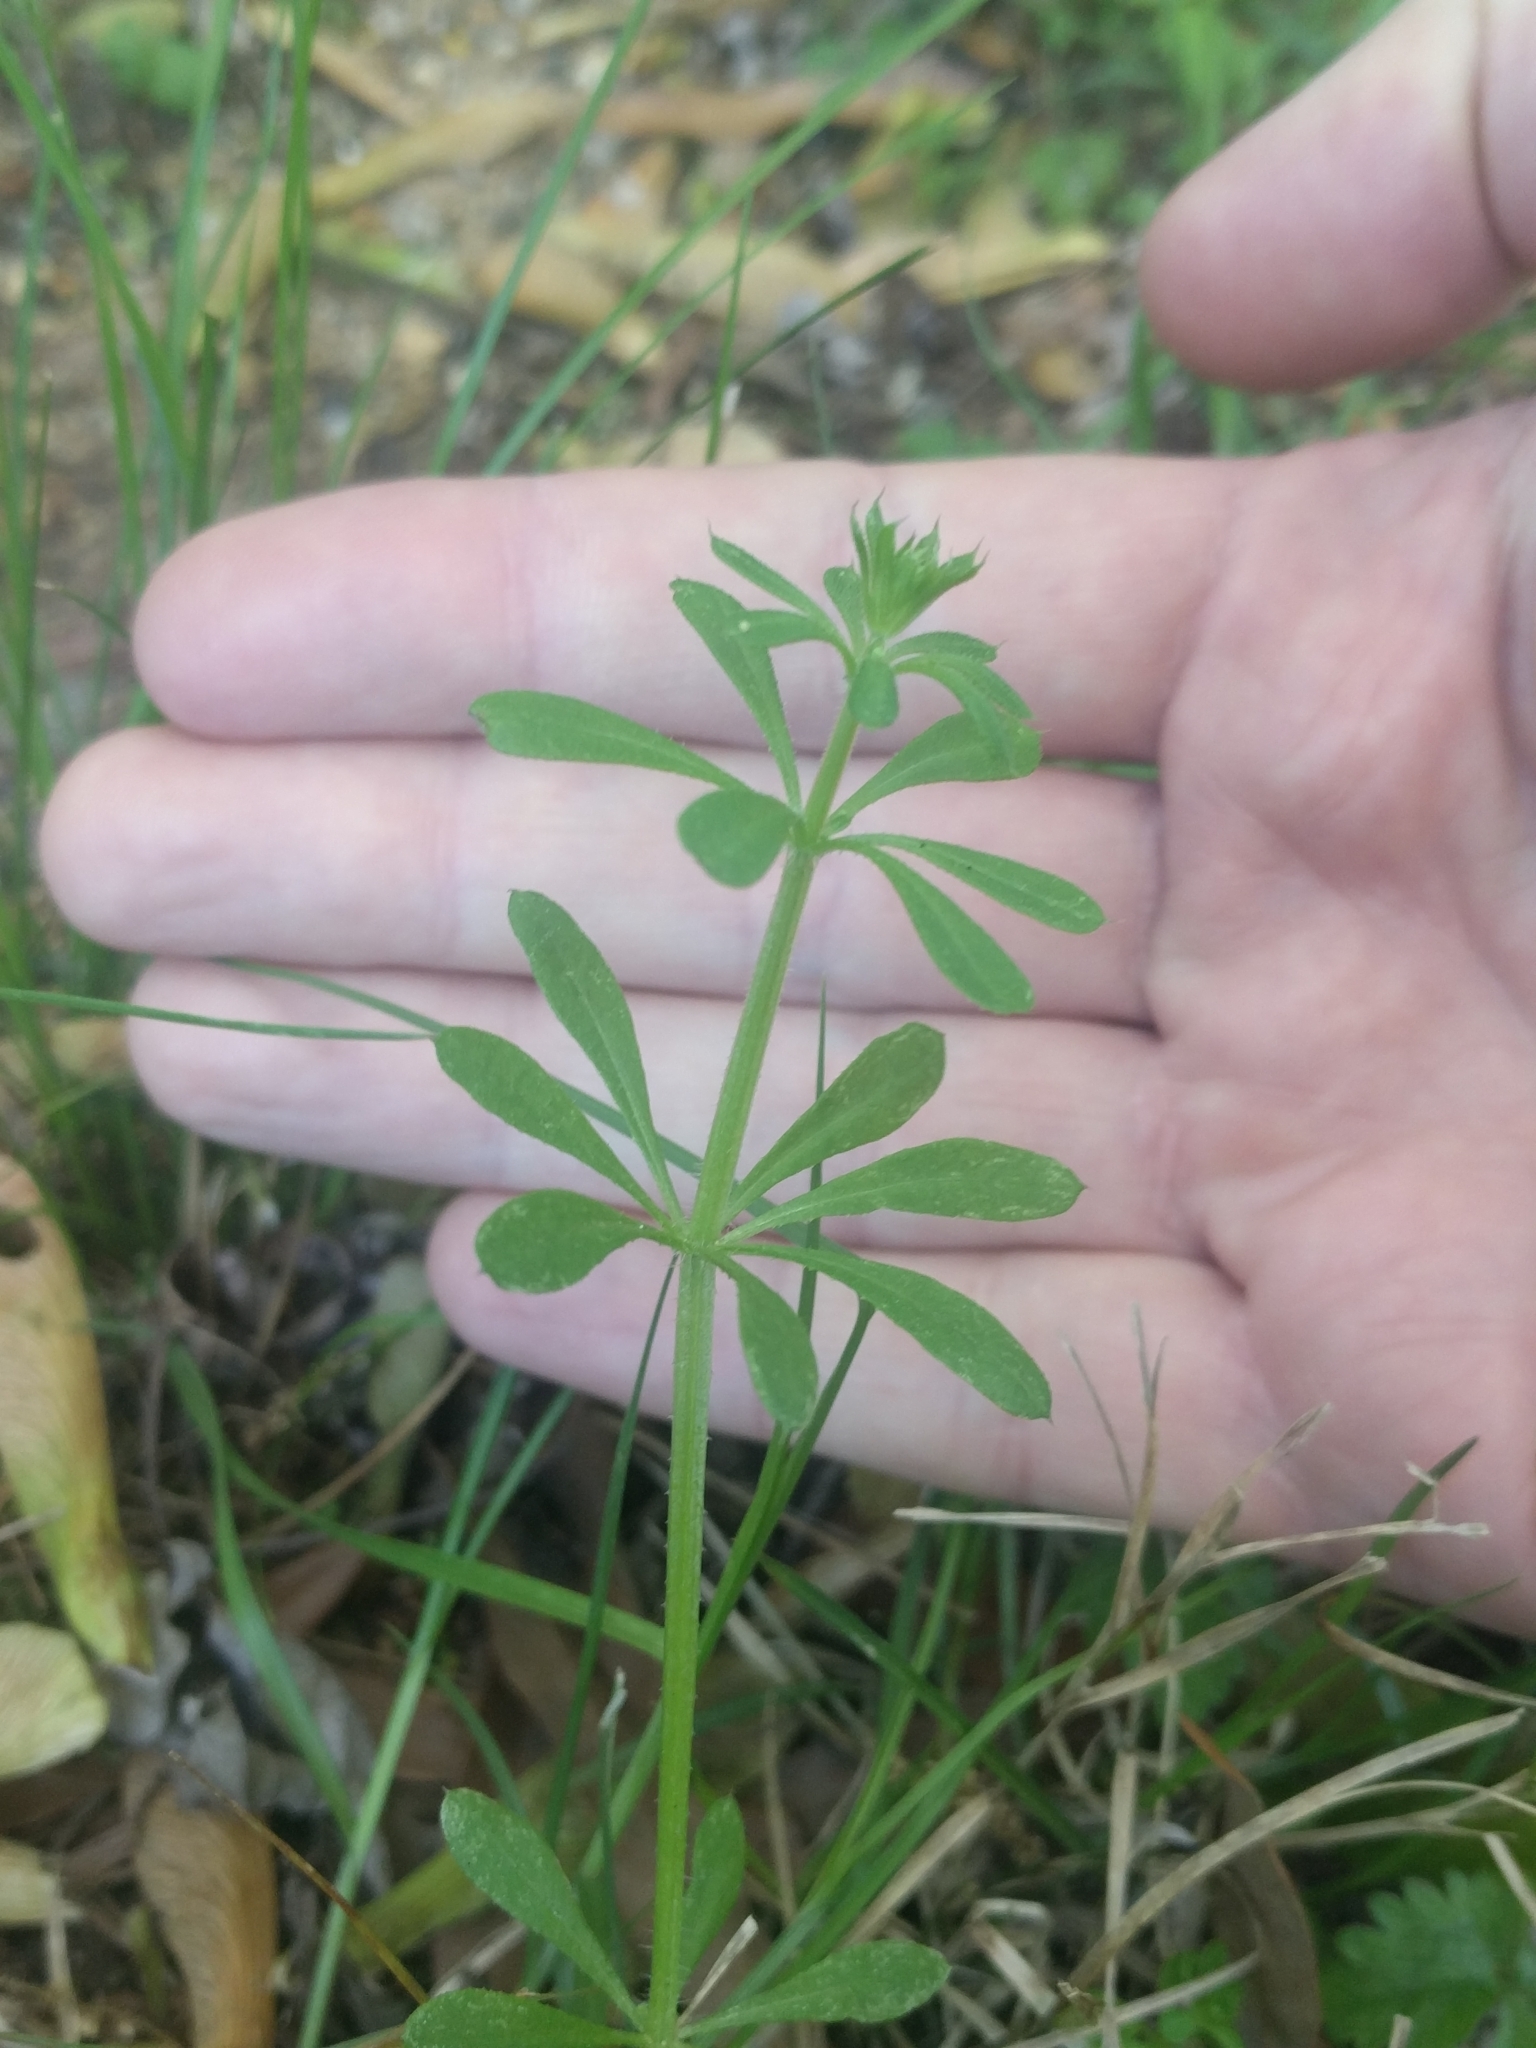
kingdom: Plantae
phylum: Tracheophyta
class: Magnoliopsida
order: Gentianales
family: Rubiaceae
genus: Galium
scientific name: Galium aparine
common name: Cleavers
